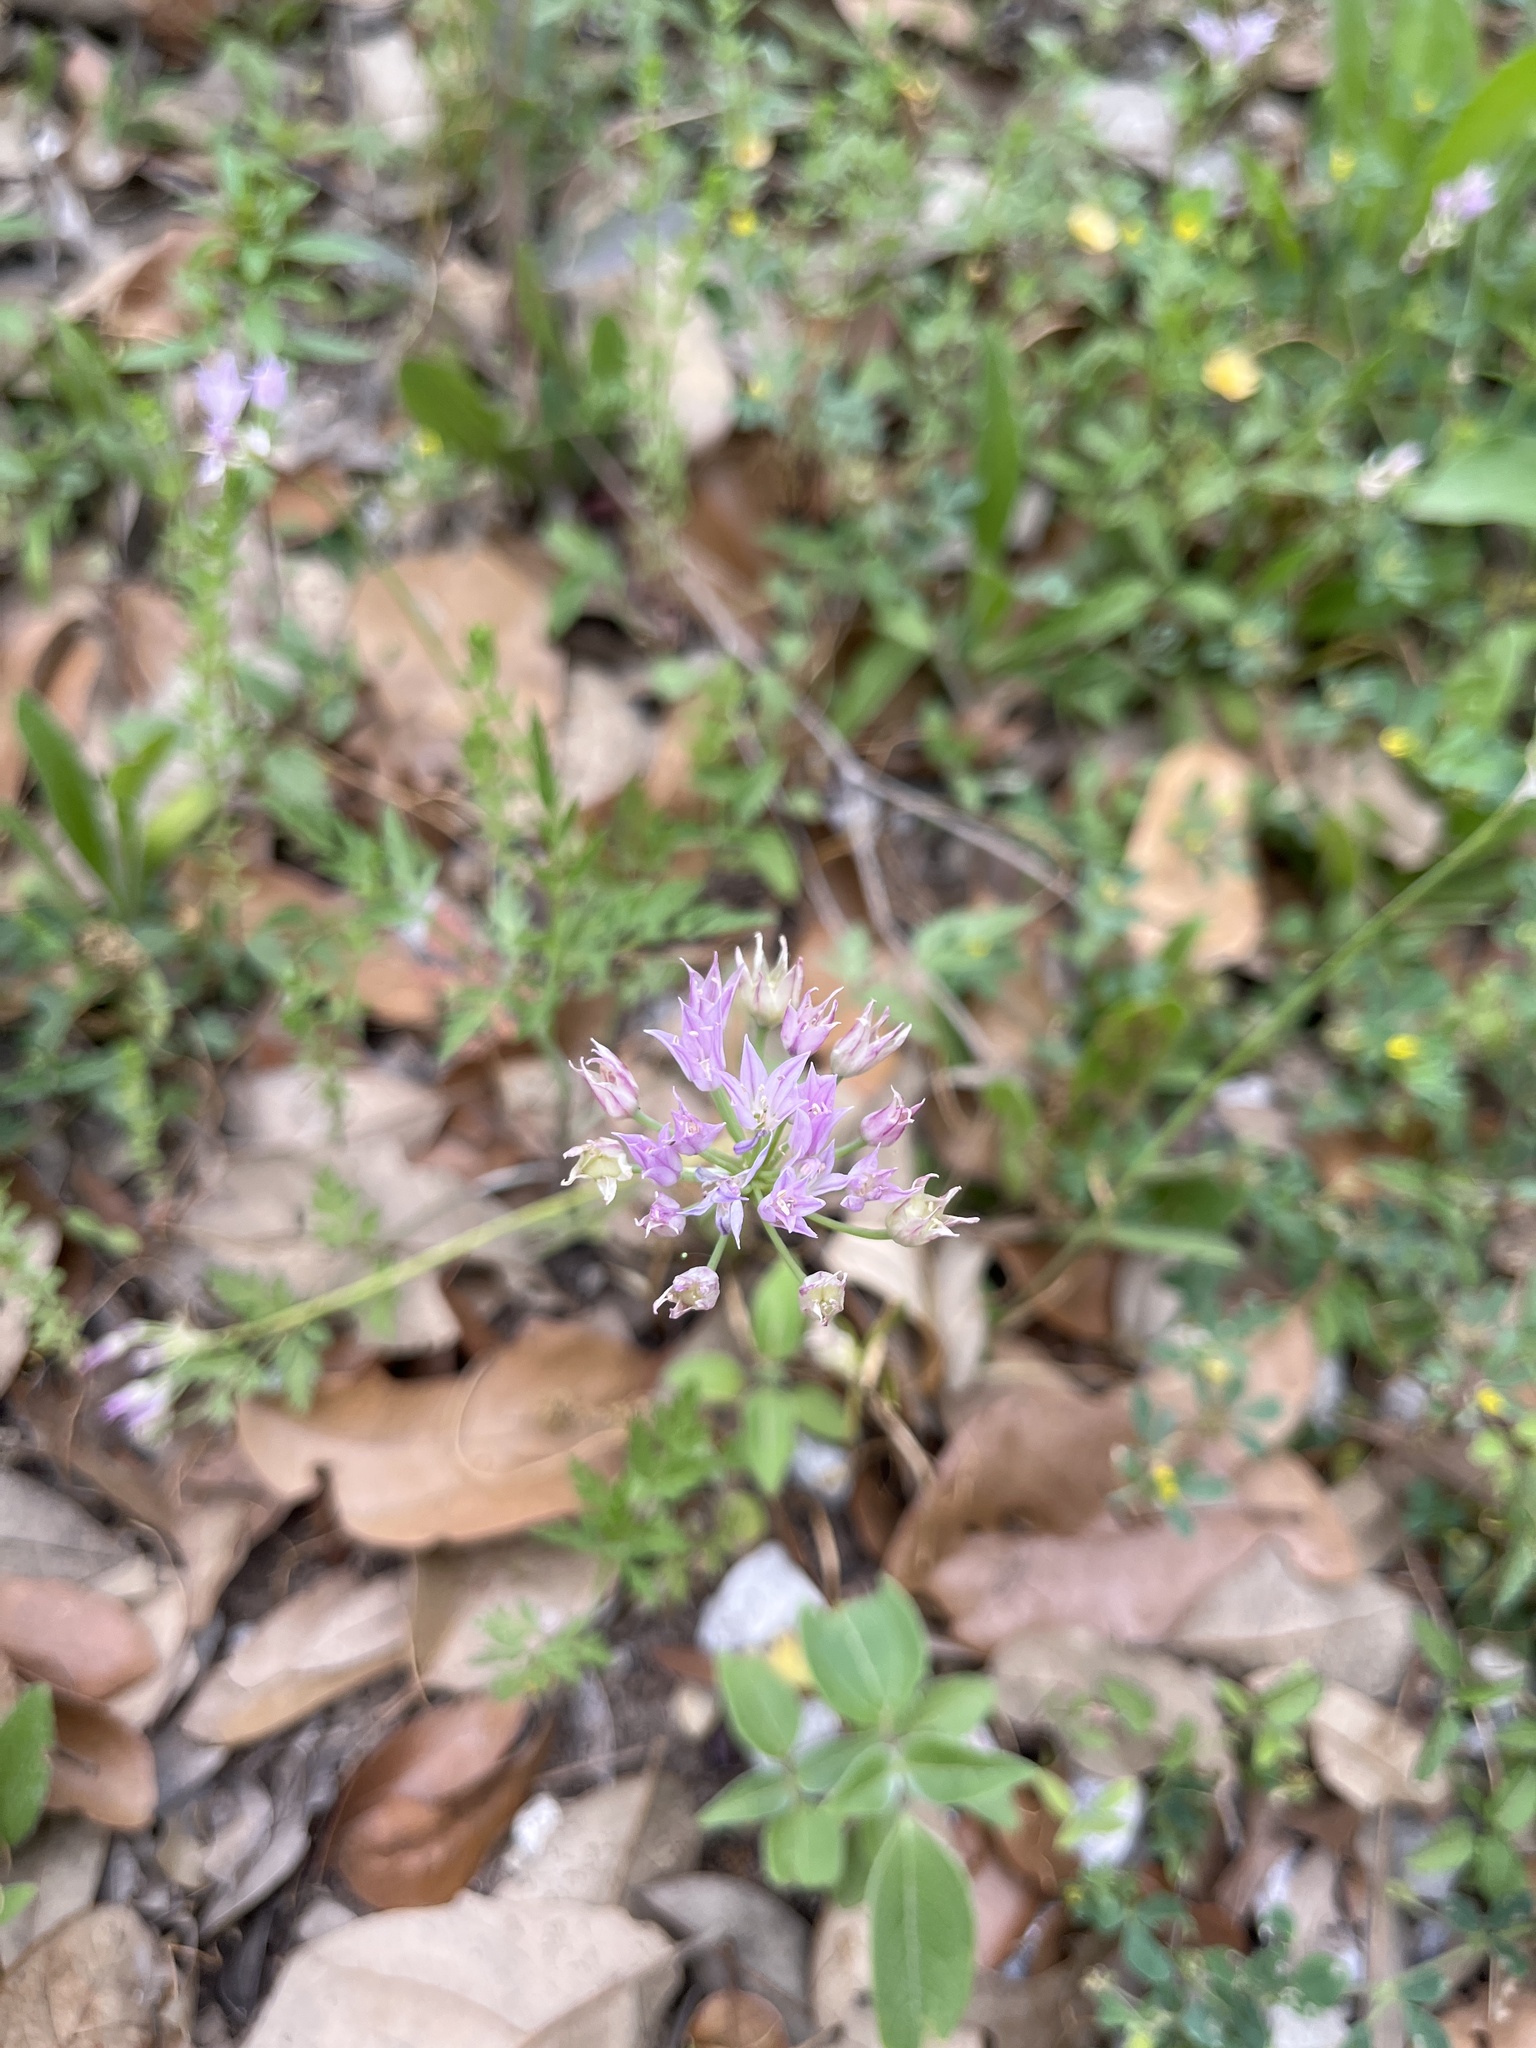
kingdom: Plantae
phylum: Tracheophyta
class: Liliopsida
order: Asparagales
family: Amaryllidaceae
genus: Allium
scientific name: Allium drummondii
